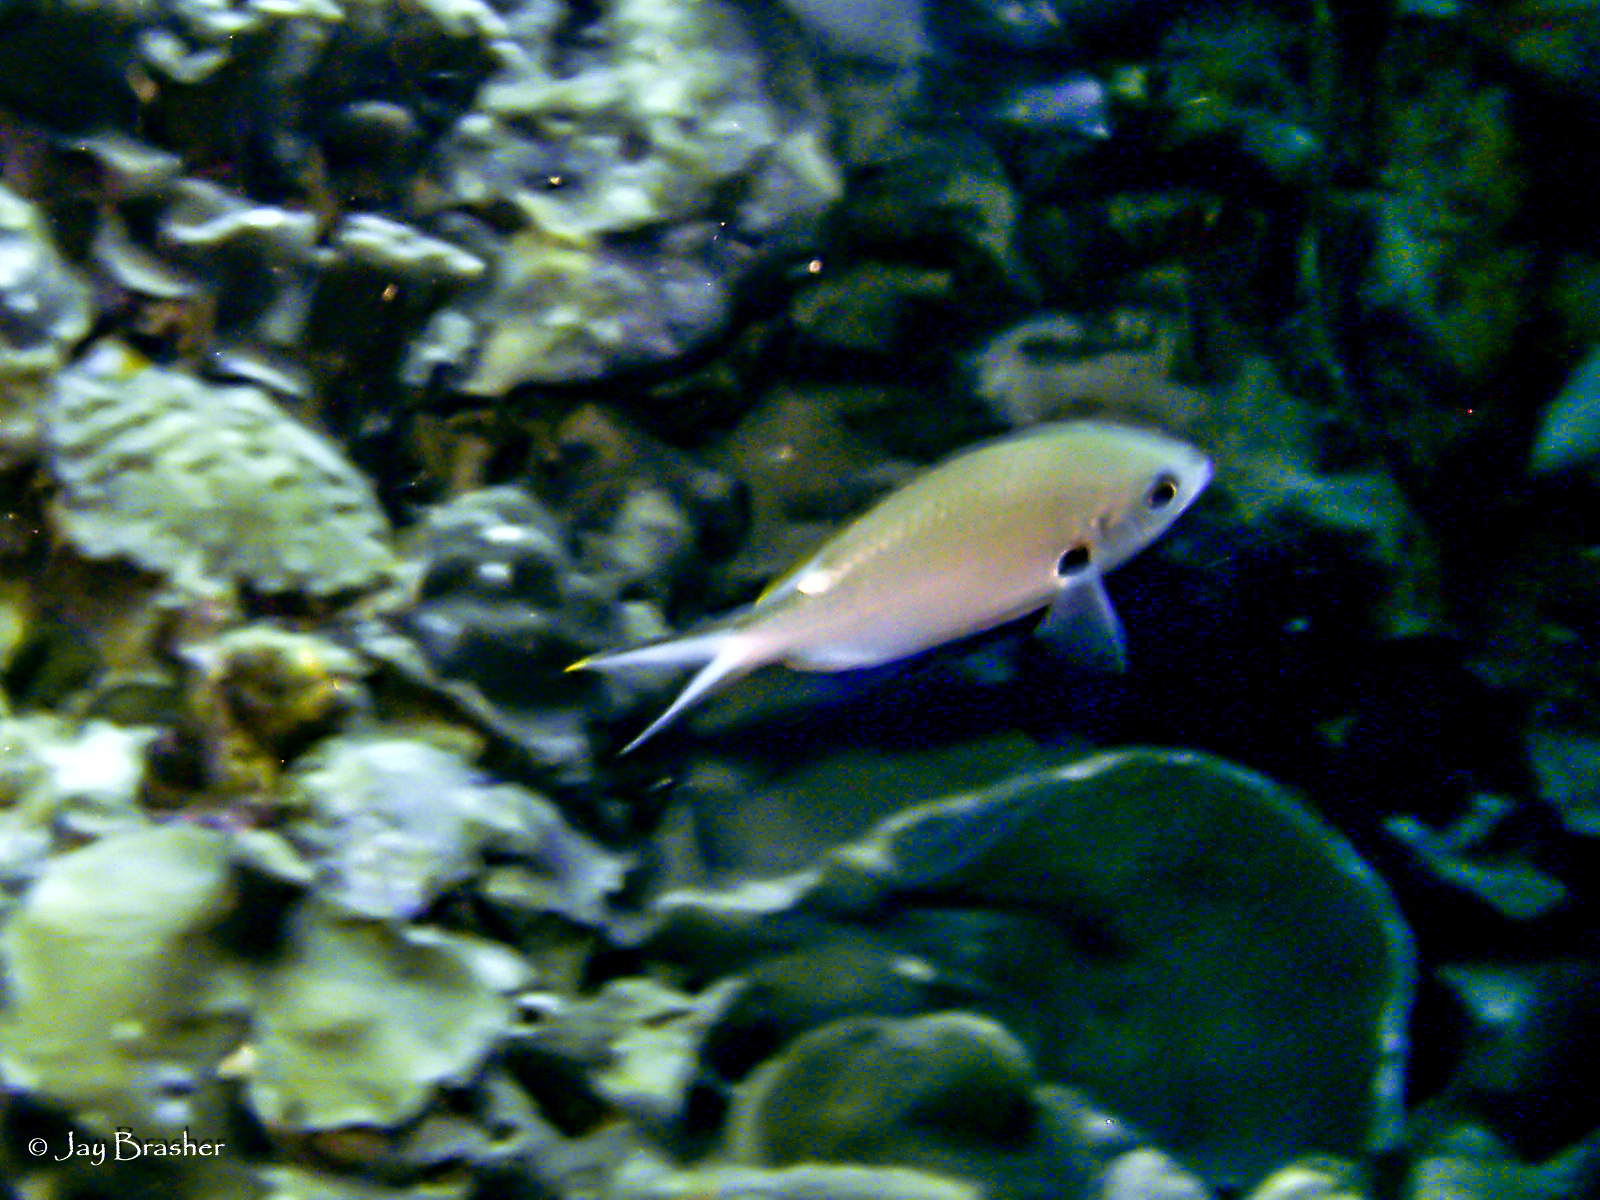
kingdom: Animalia
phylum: Chordata
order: Perciformes
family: Pomacentridae
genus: Chromis
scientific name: Chromis multilineata
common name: Brown chromis
